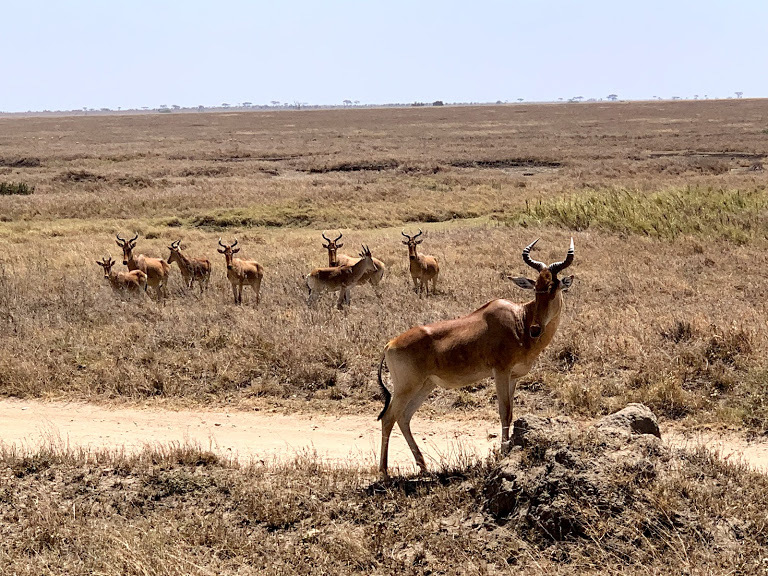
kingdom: Animalia
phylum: Chordata
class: Mammalia
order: Artiodactyla
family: Bovidae
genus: Alcelaphus
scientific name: Alcelaphus buselaphus
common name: Hartebeest
